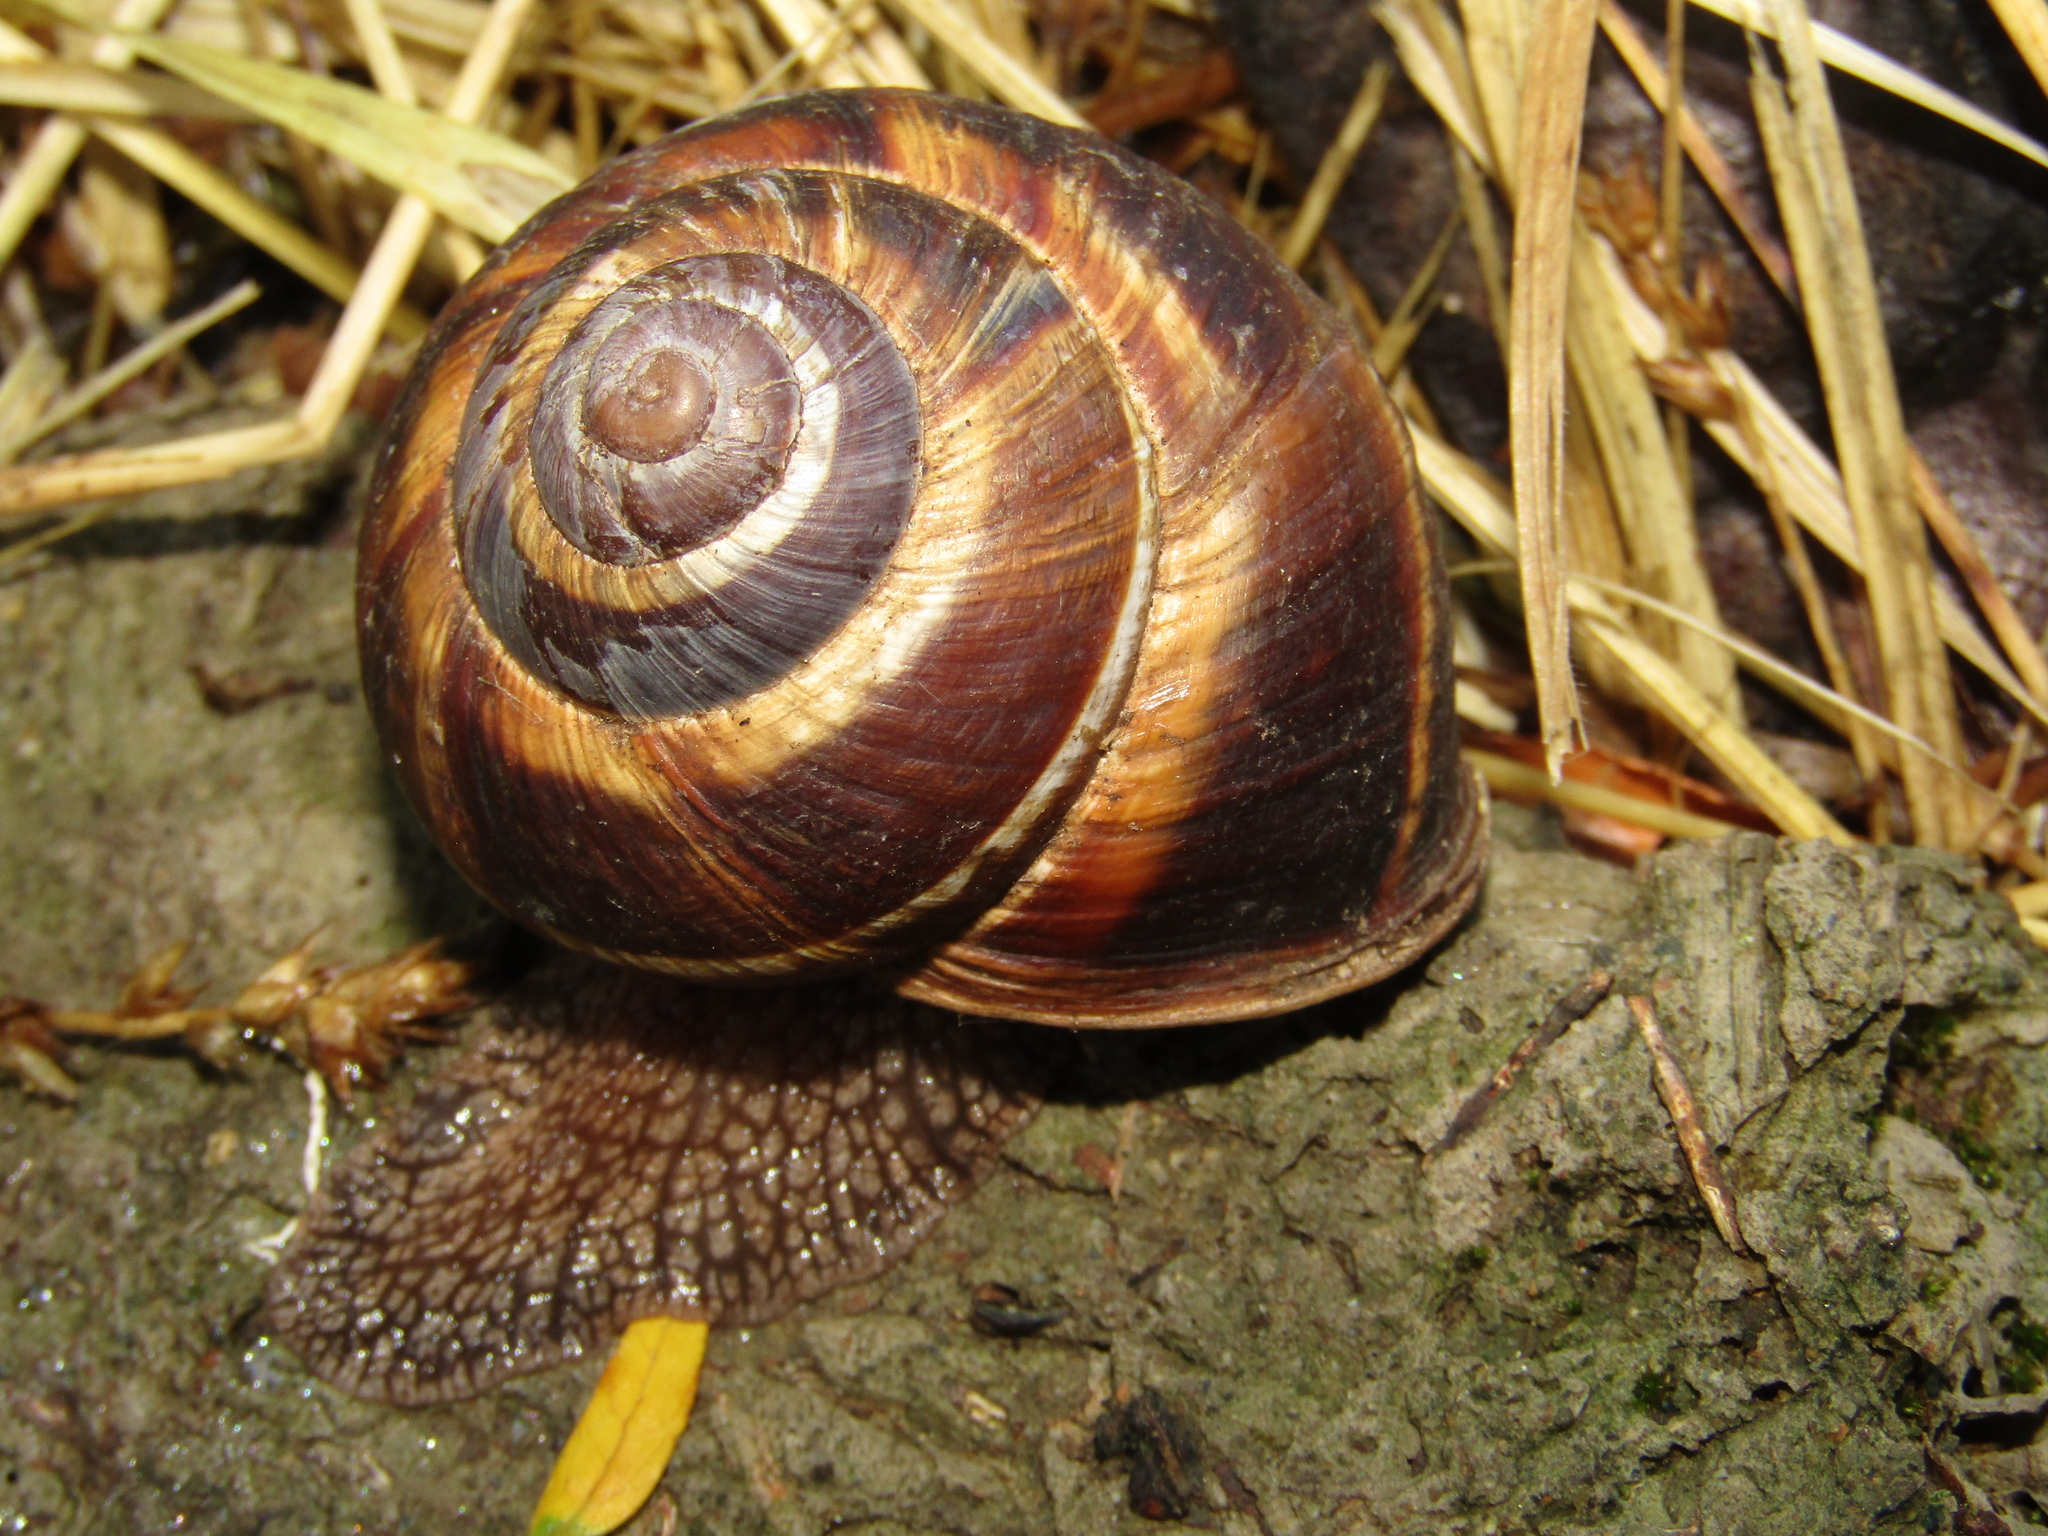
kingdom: Animalia
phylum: Mollusca
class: Gastropoda
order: Stylommatophora
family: Helicidae
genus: Helix
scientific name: Helix lucorum
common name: Turkish snail
